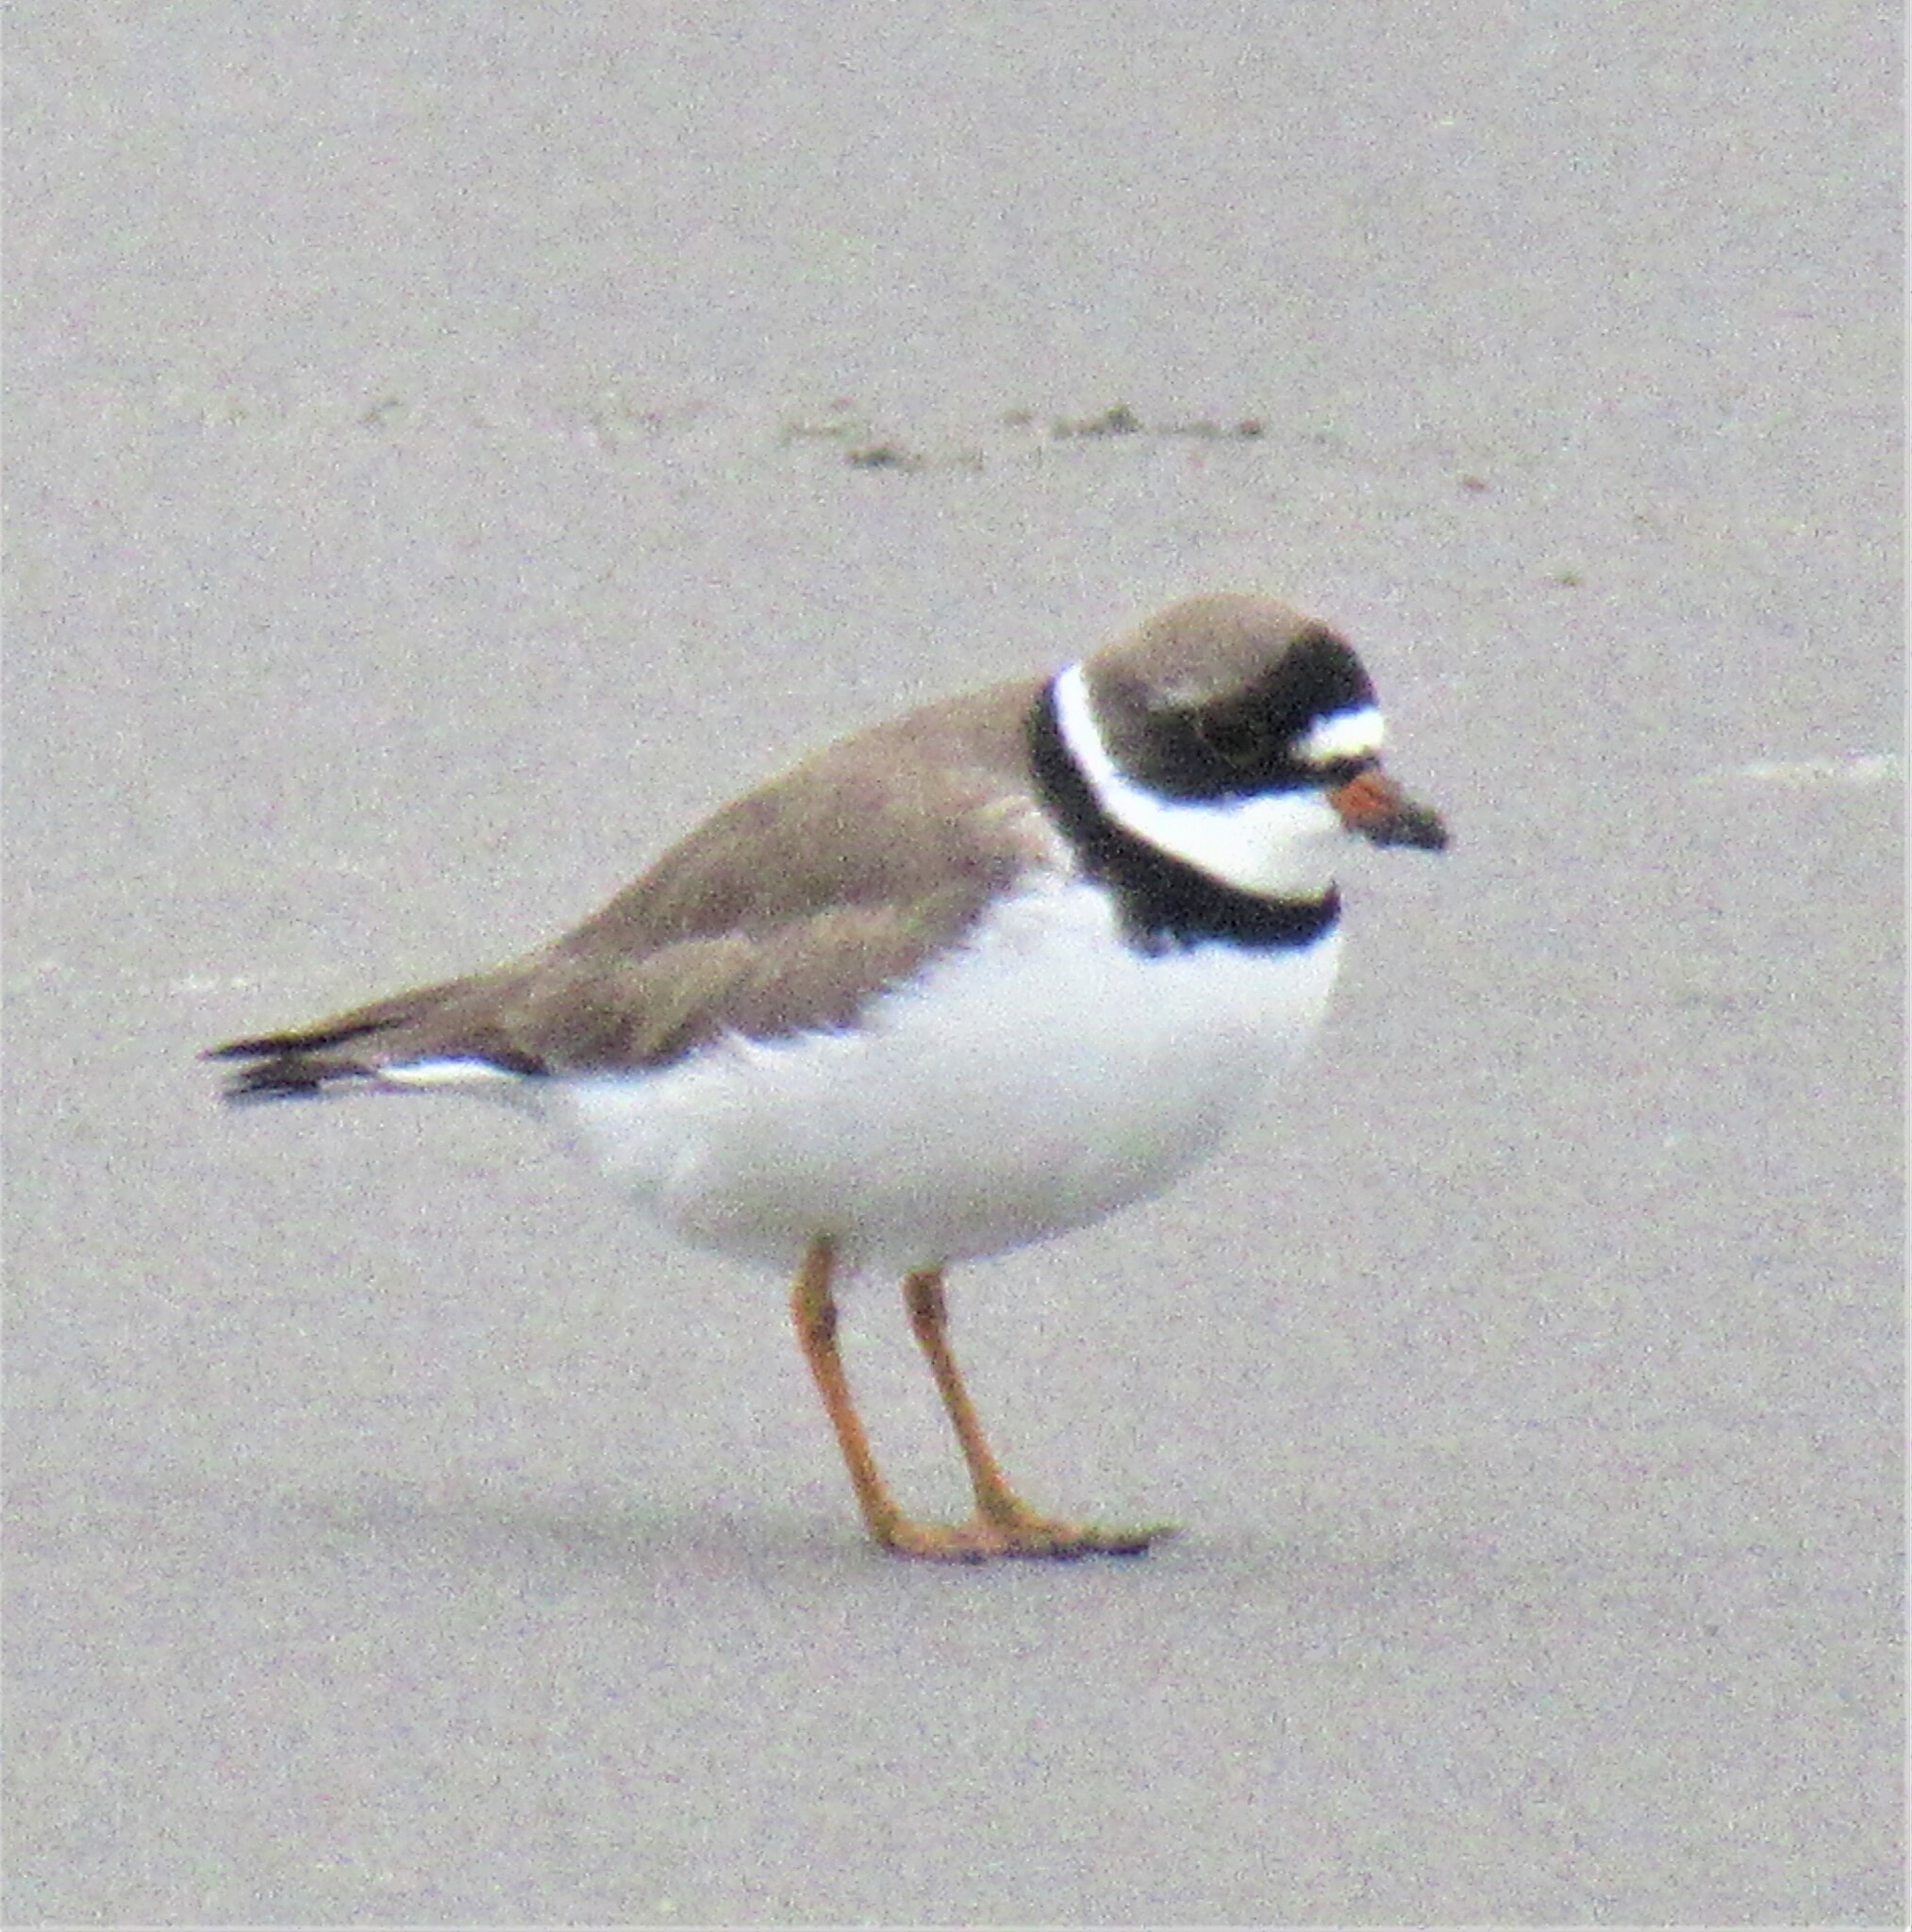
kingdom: Animalia
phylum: Chordata
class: Aves
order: Charadriiformes
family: Charadriidae
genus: Charadrius
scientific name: Charadrius semipalmatus
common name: Semipalmated plover
